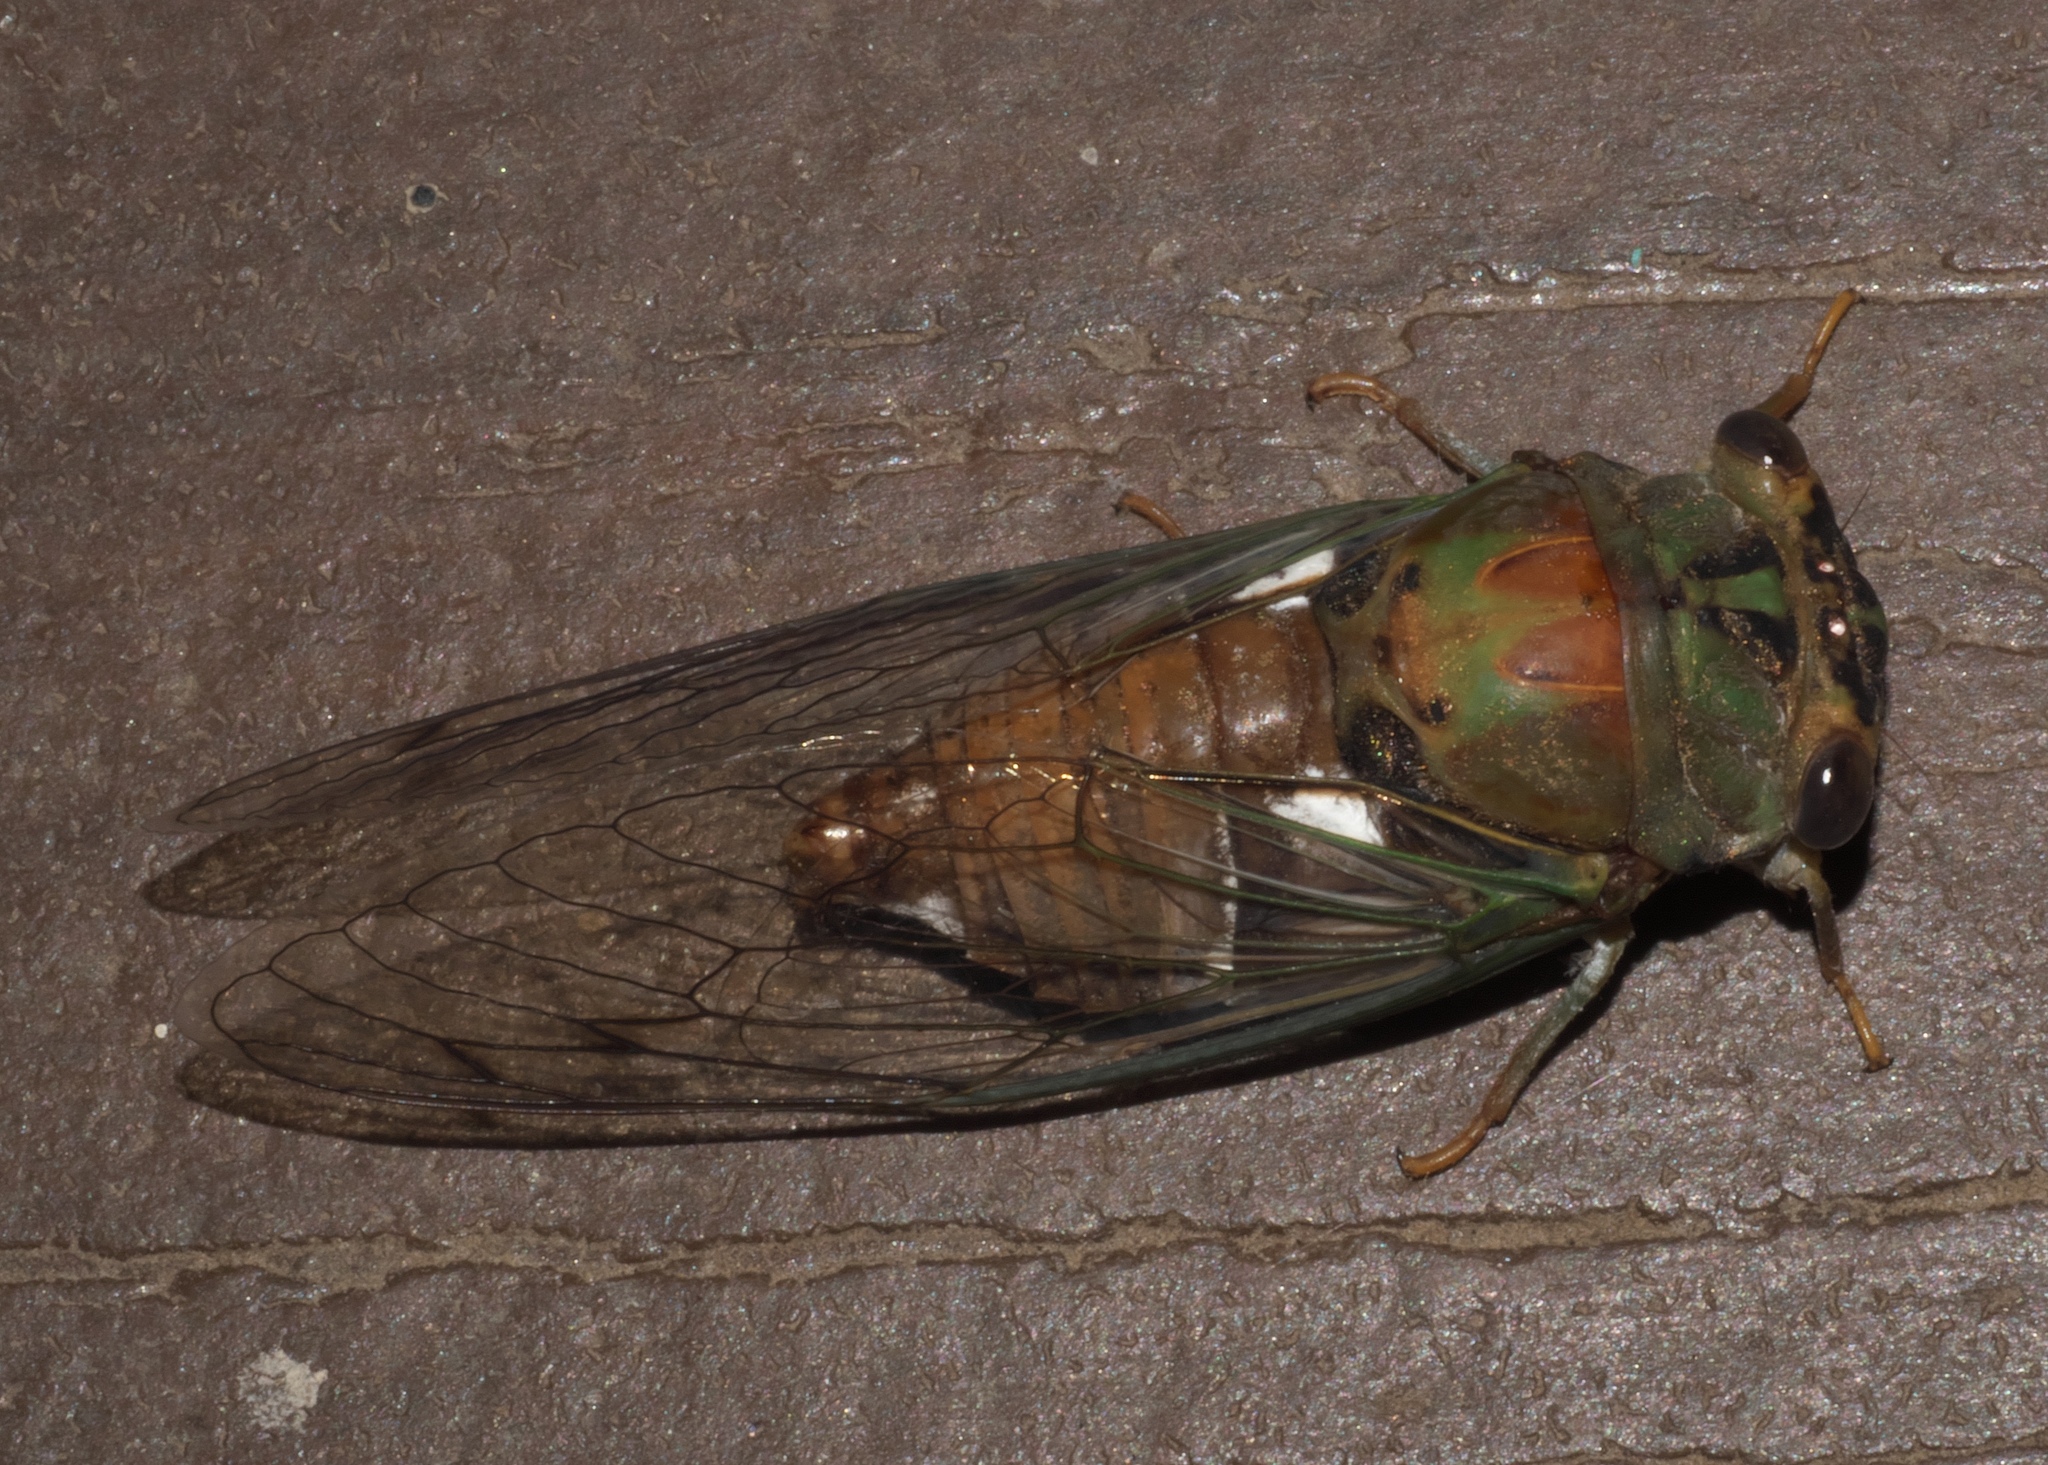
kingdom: Animalia
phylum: Arthropoda
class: Insecta
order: Hemiptera
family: Cicadidae
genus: Neotibicen
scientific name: Neotibicen pruinosus
